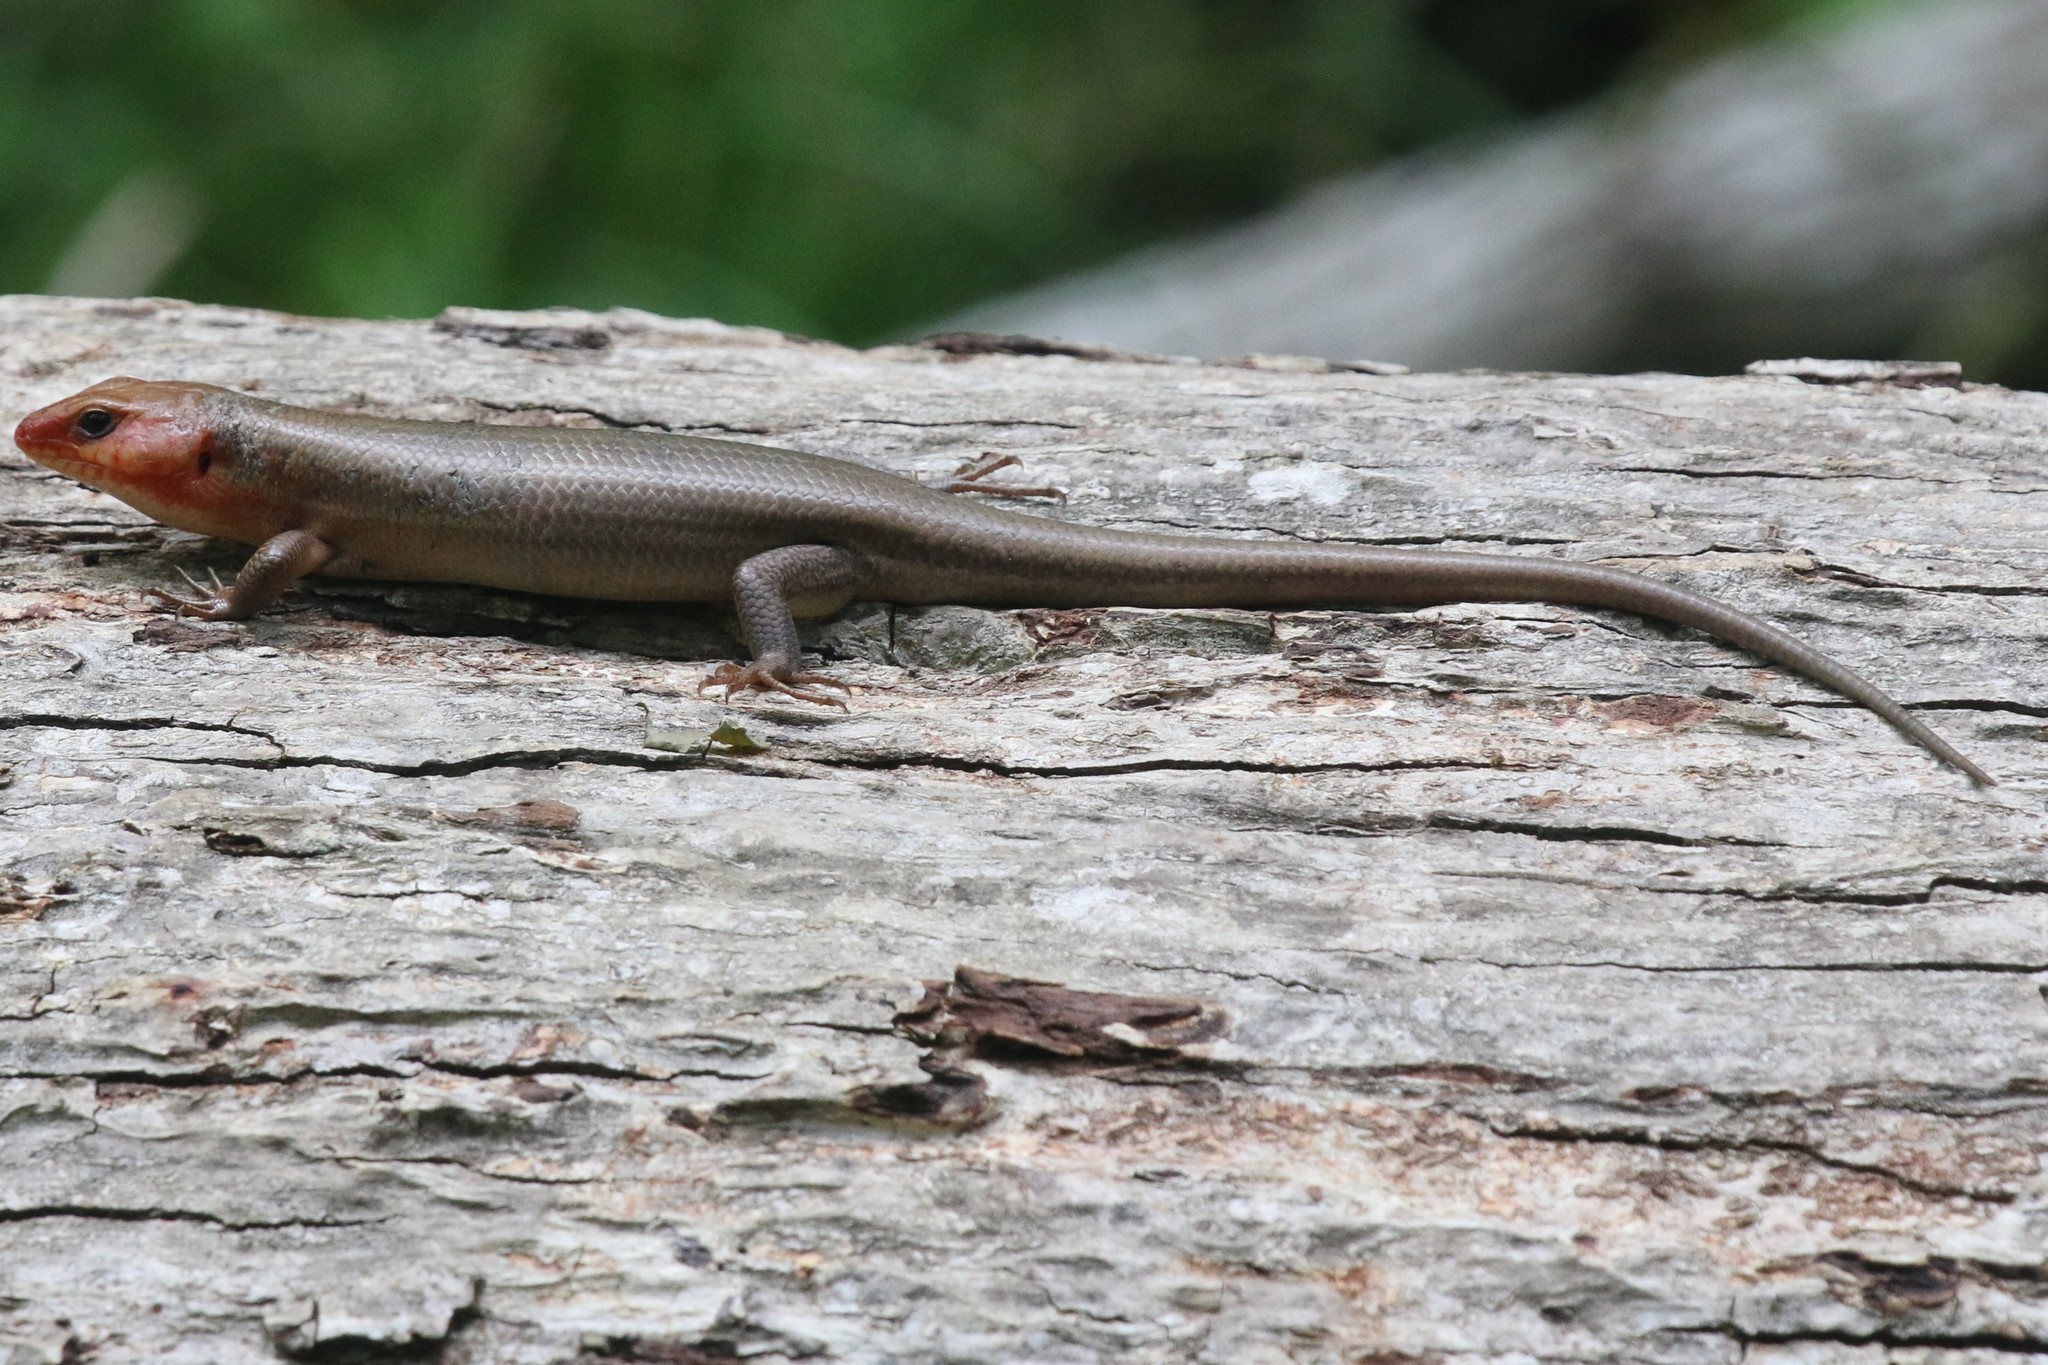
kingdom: Animalia
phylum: Chordata
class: Squamata
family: Scincidae
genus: Plestiodon
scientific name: Plestiodon laticeps
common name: Broadhead skink
